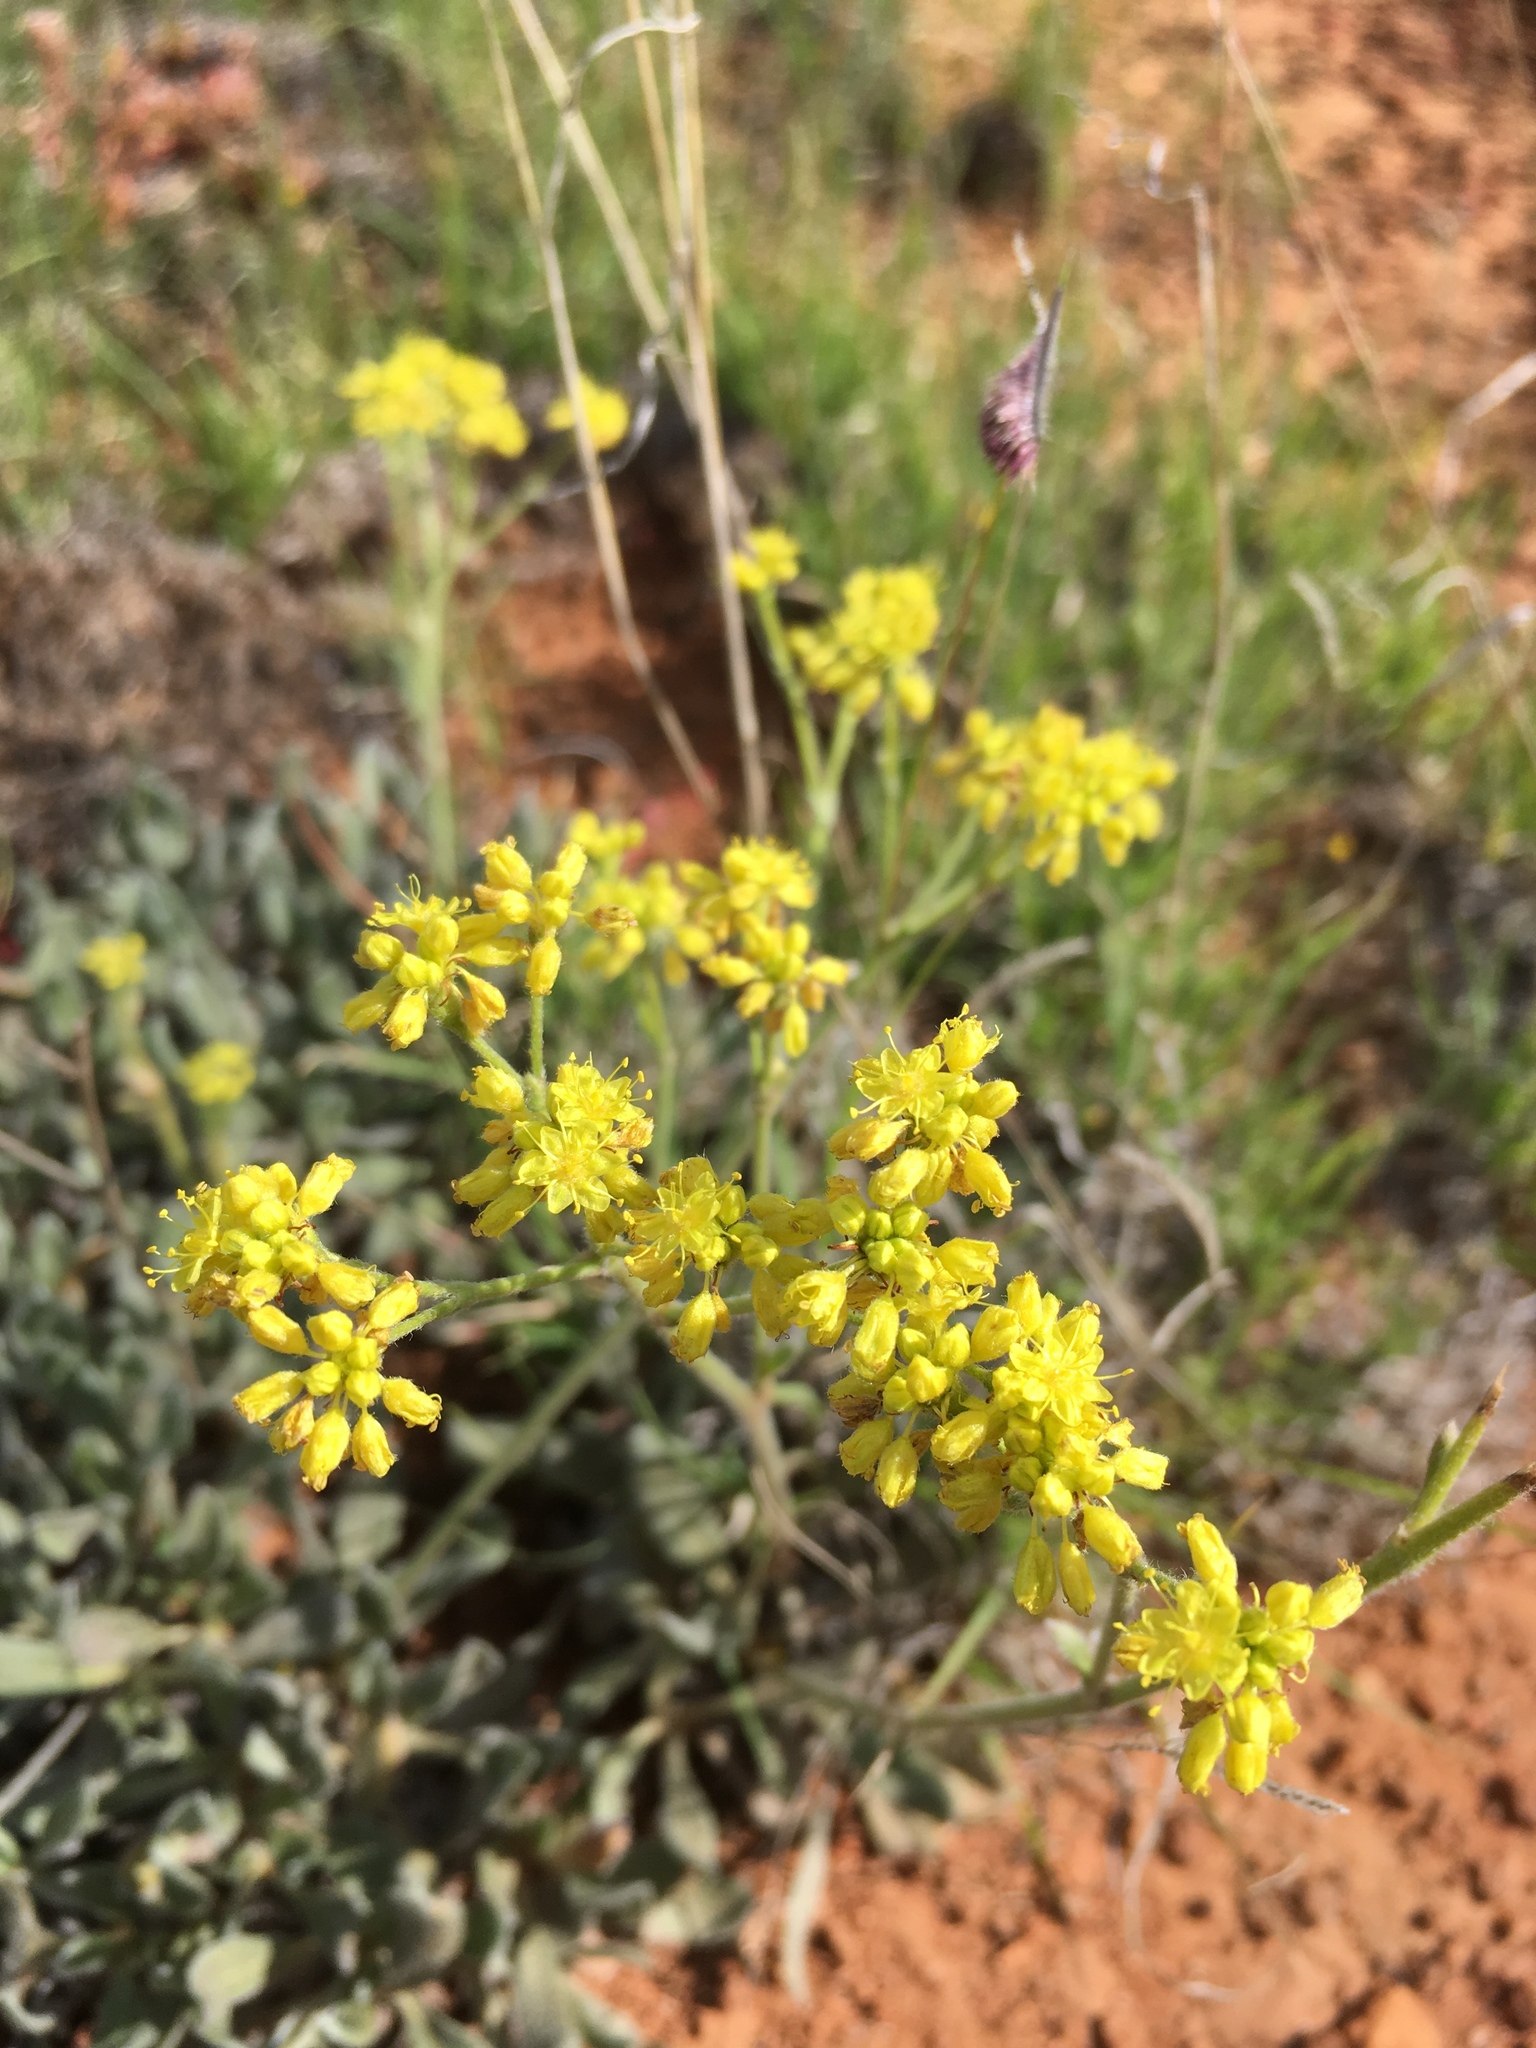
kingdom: Plantae
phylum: Tracheophyta
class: Magnoliopsida
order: Caryophyllales
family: Polygonaceae
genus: Eriogonum
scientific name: Eriogonum hieraciifolium
